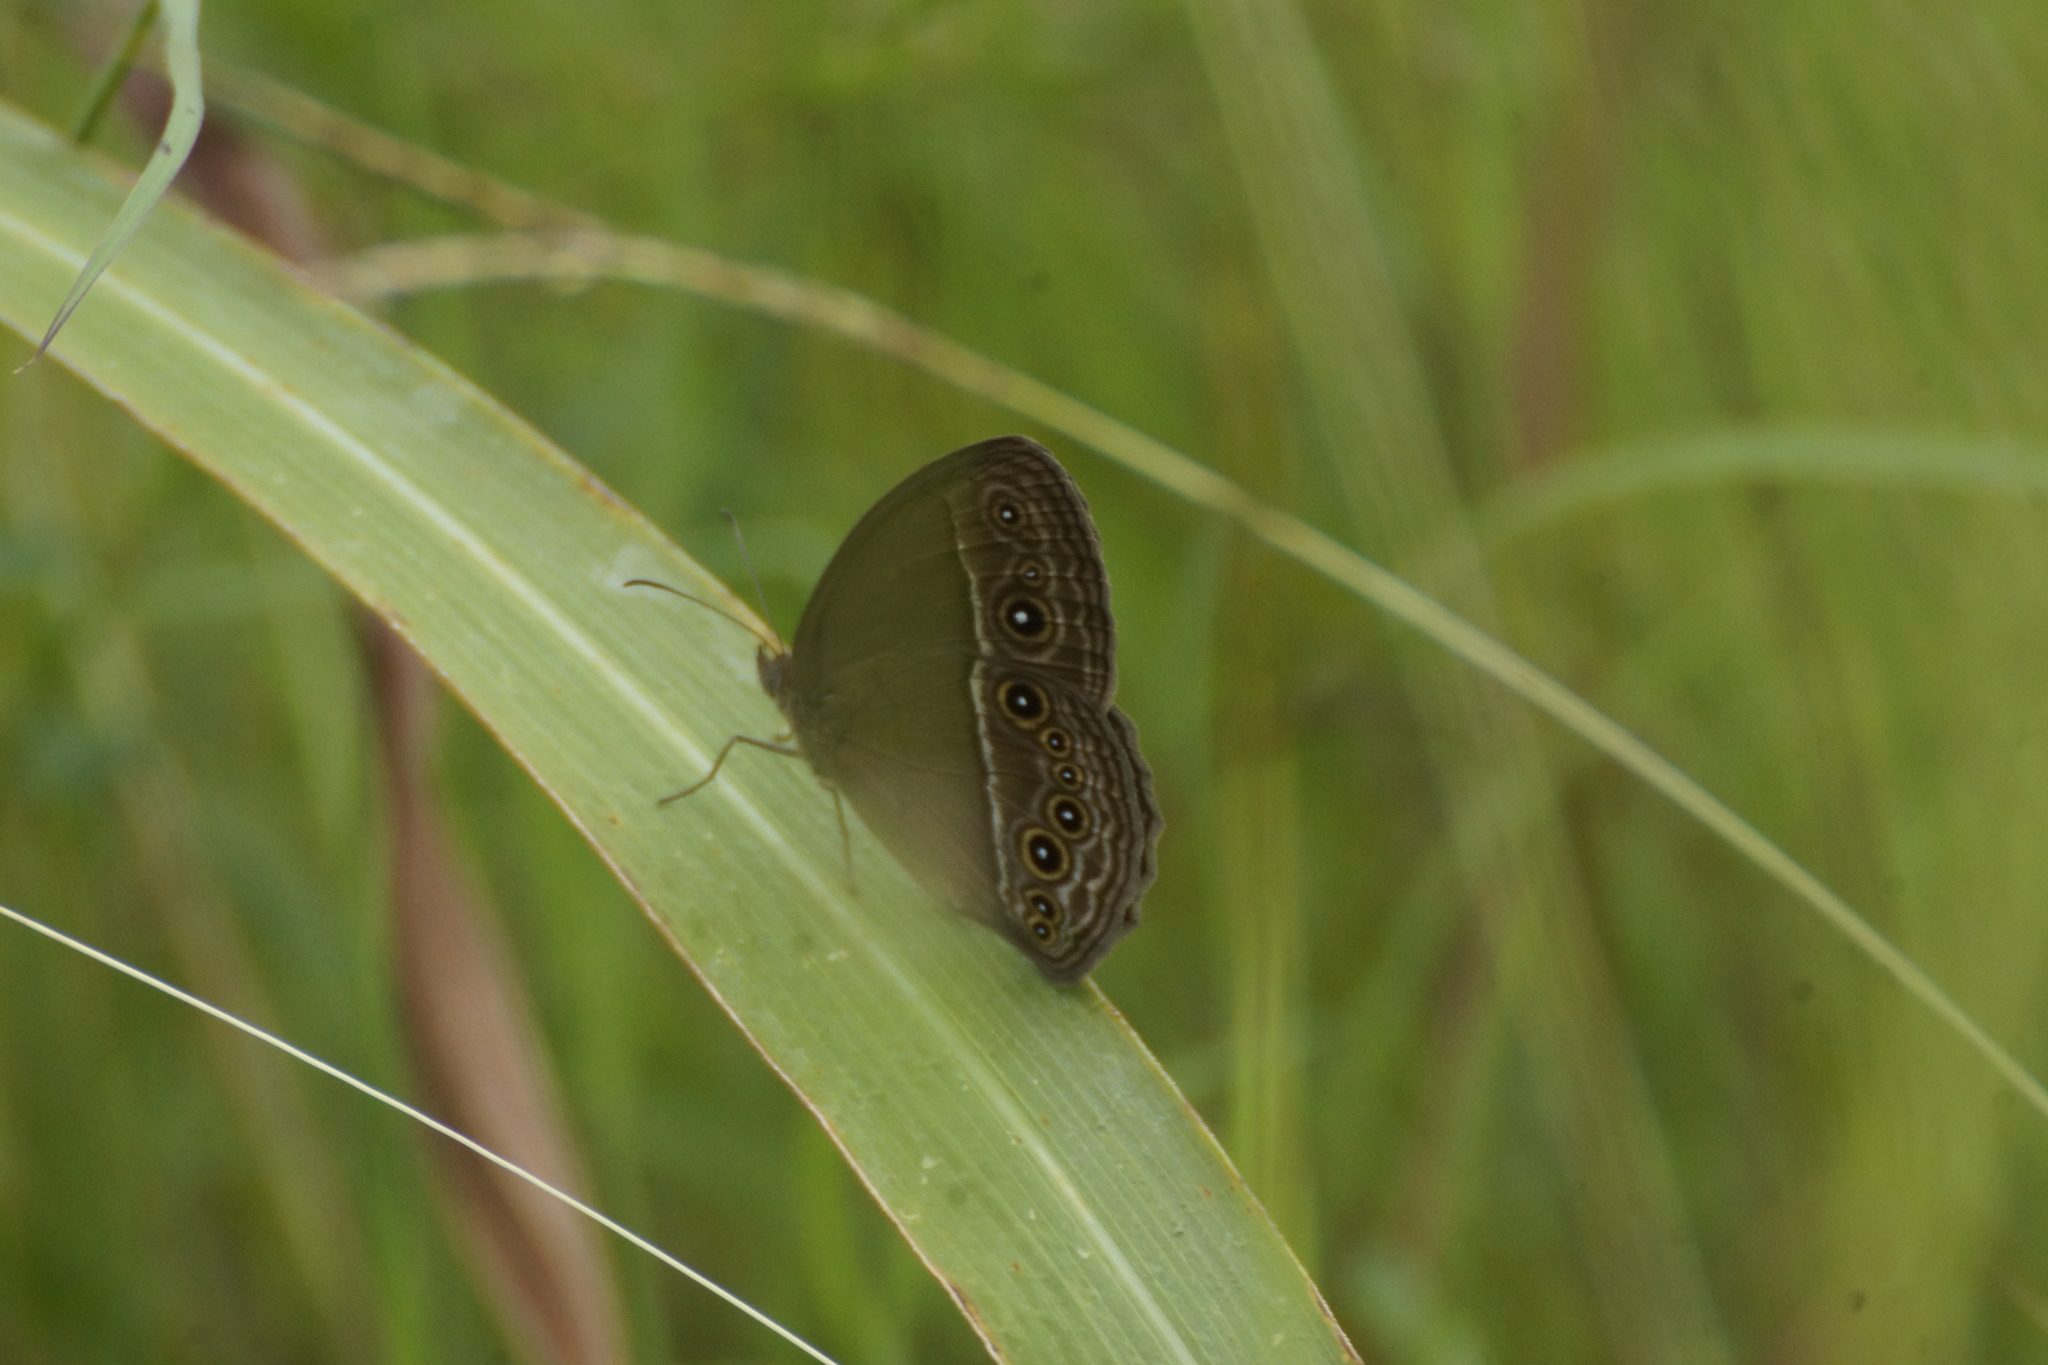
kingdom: Animalia
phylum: Arthropoda
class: Insecta
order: Lepidoptera
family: Nymphalidae
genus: Mycalesis
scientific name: Mycalesis perseus
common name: Dingy bushbrown
